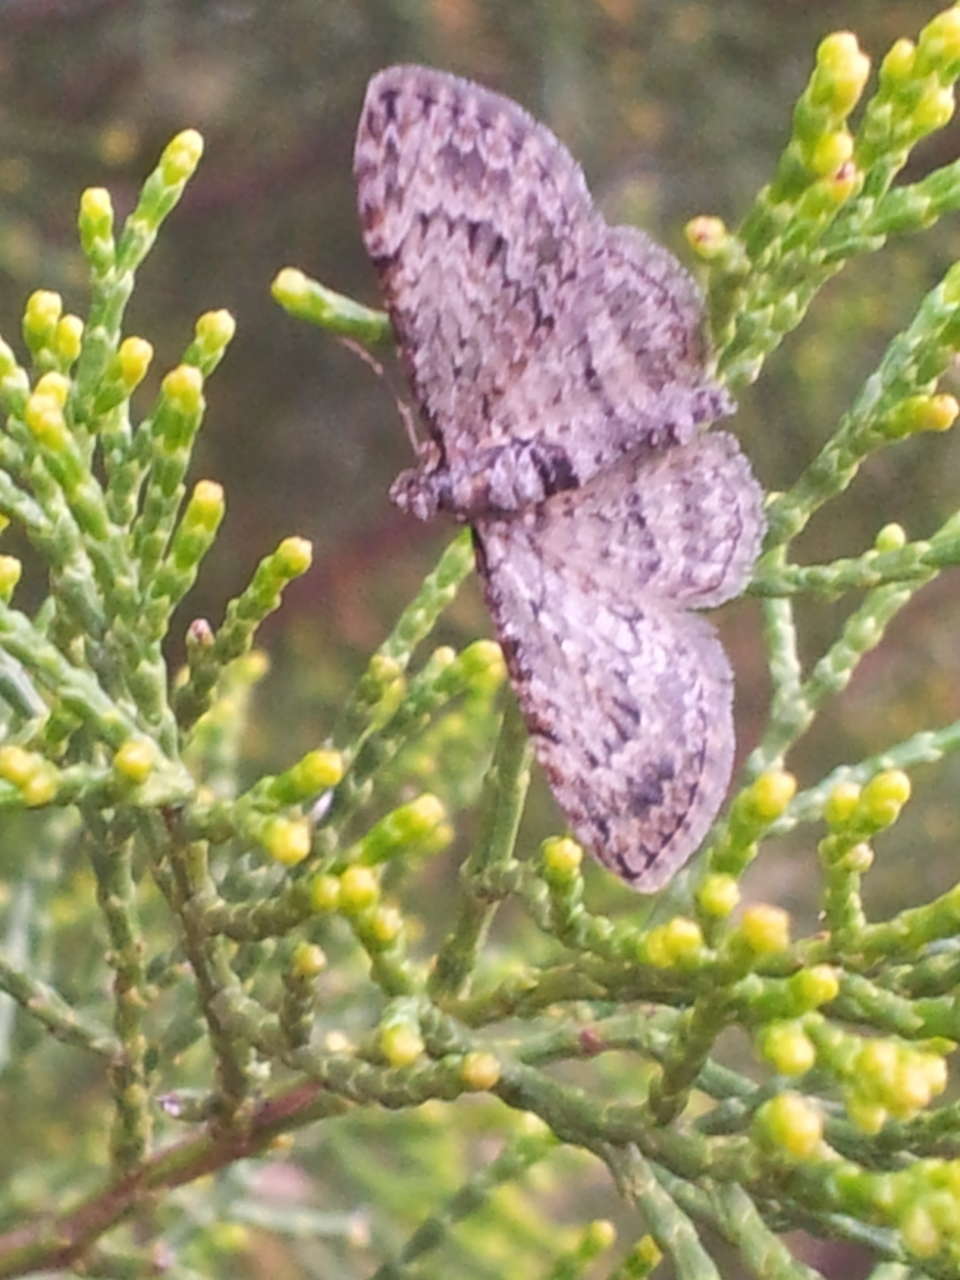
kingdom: Animalia
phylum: Arthropoda
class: Insecta
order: Lepidoptera
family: Geometridae
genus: Chloroclystis
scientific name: Chloroclystis insigillata
